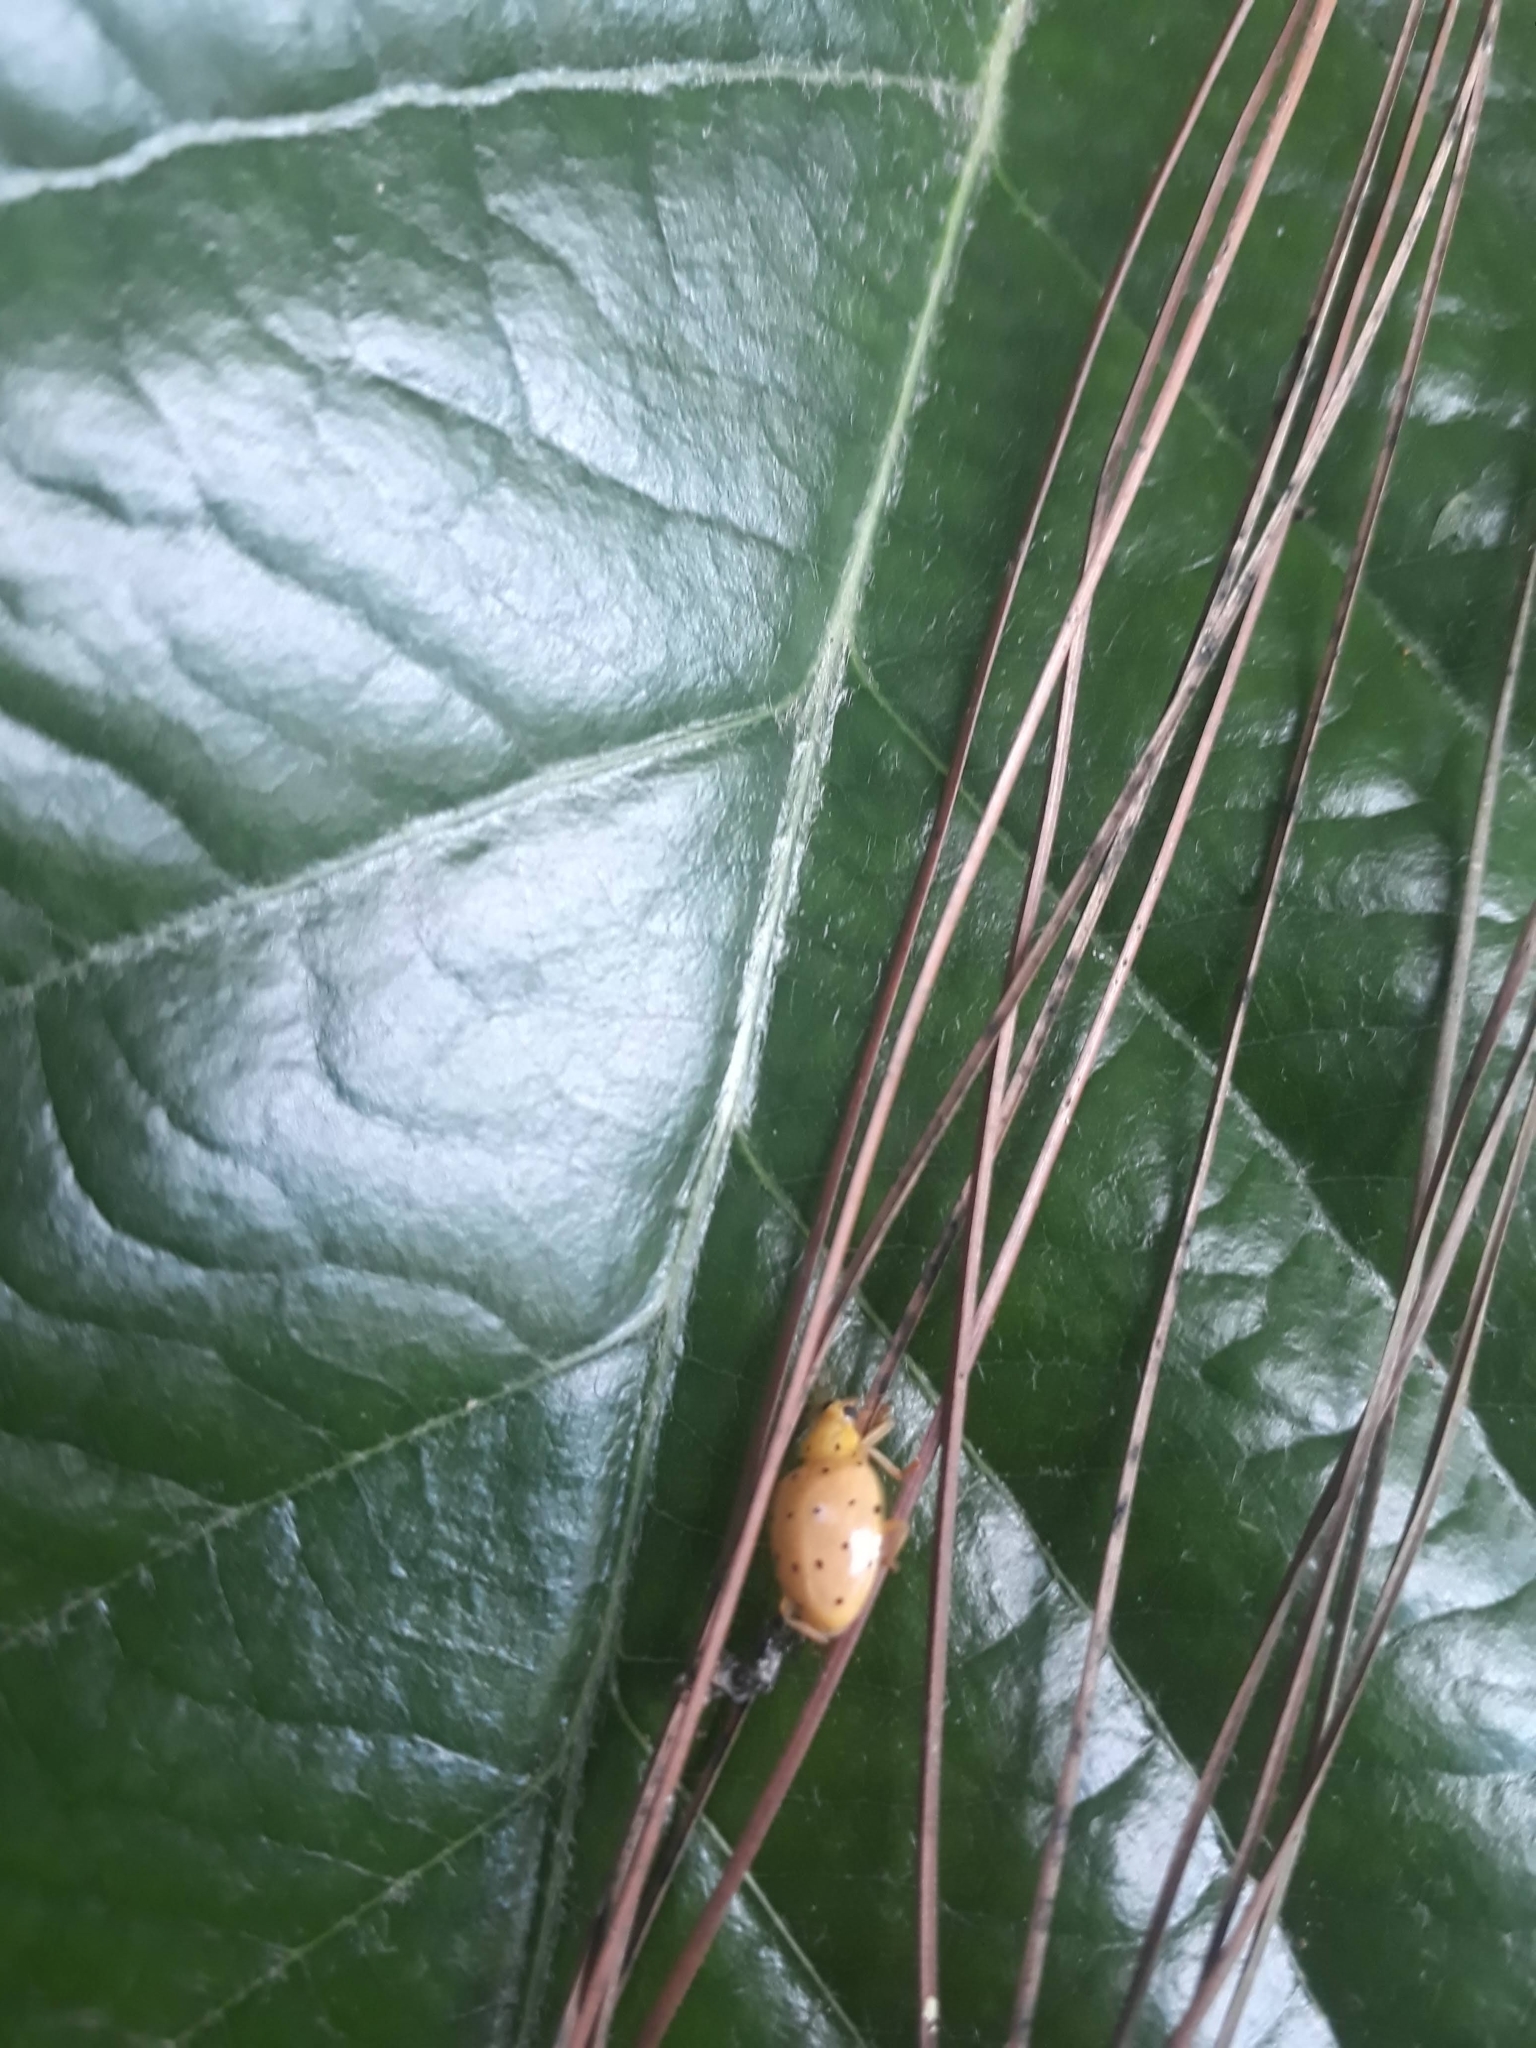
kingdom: Animalia
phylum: Arthropoda
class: Insecta
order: Coleoptera
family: Coccinellidae
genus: Neohalyzia
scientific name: Neohalyzia
